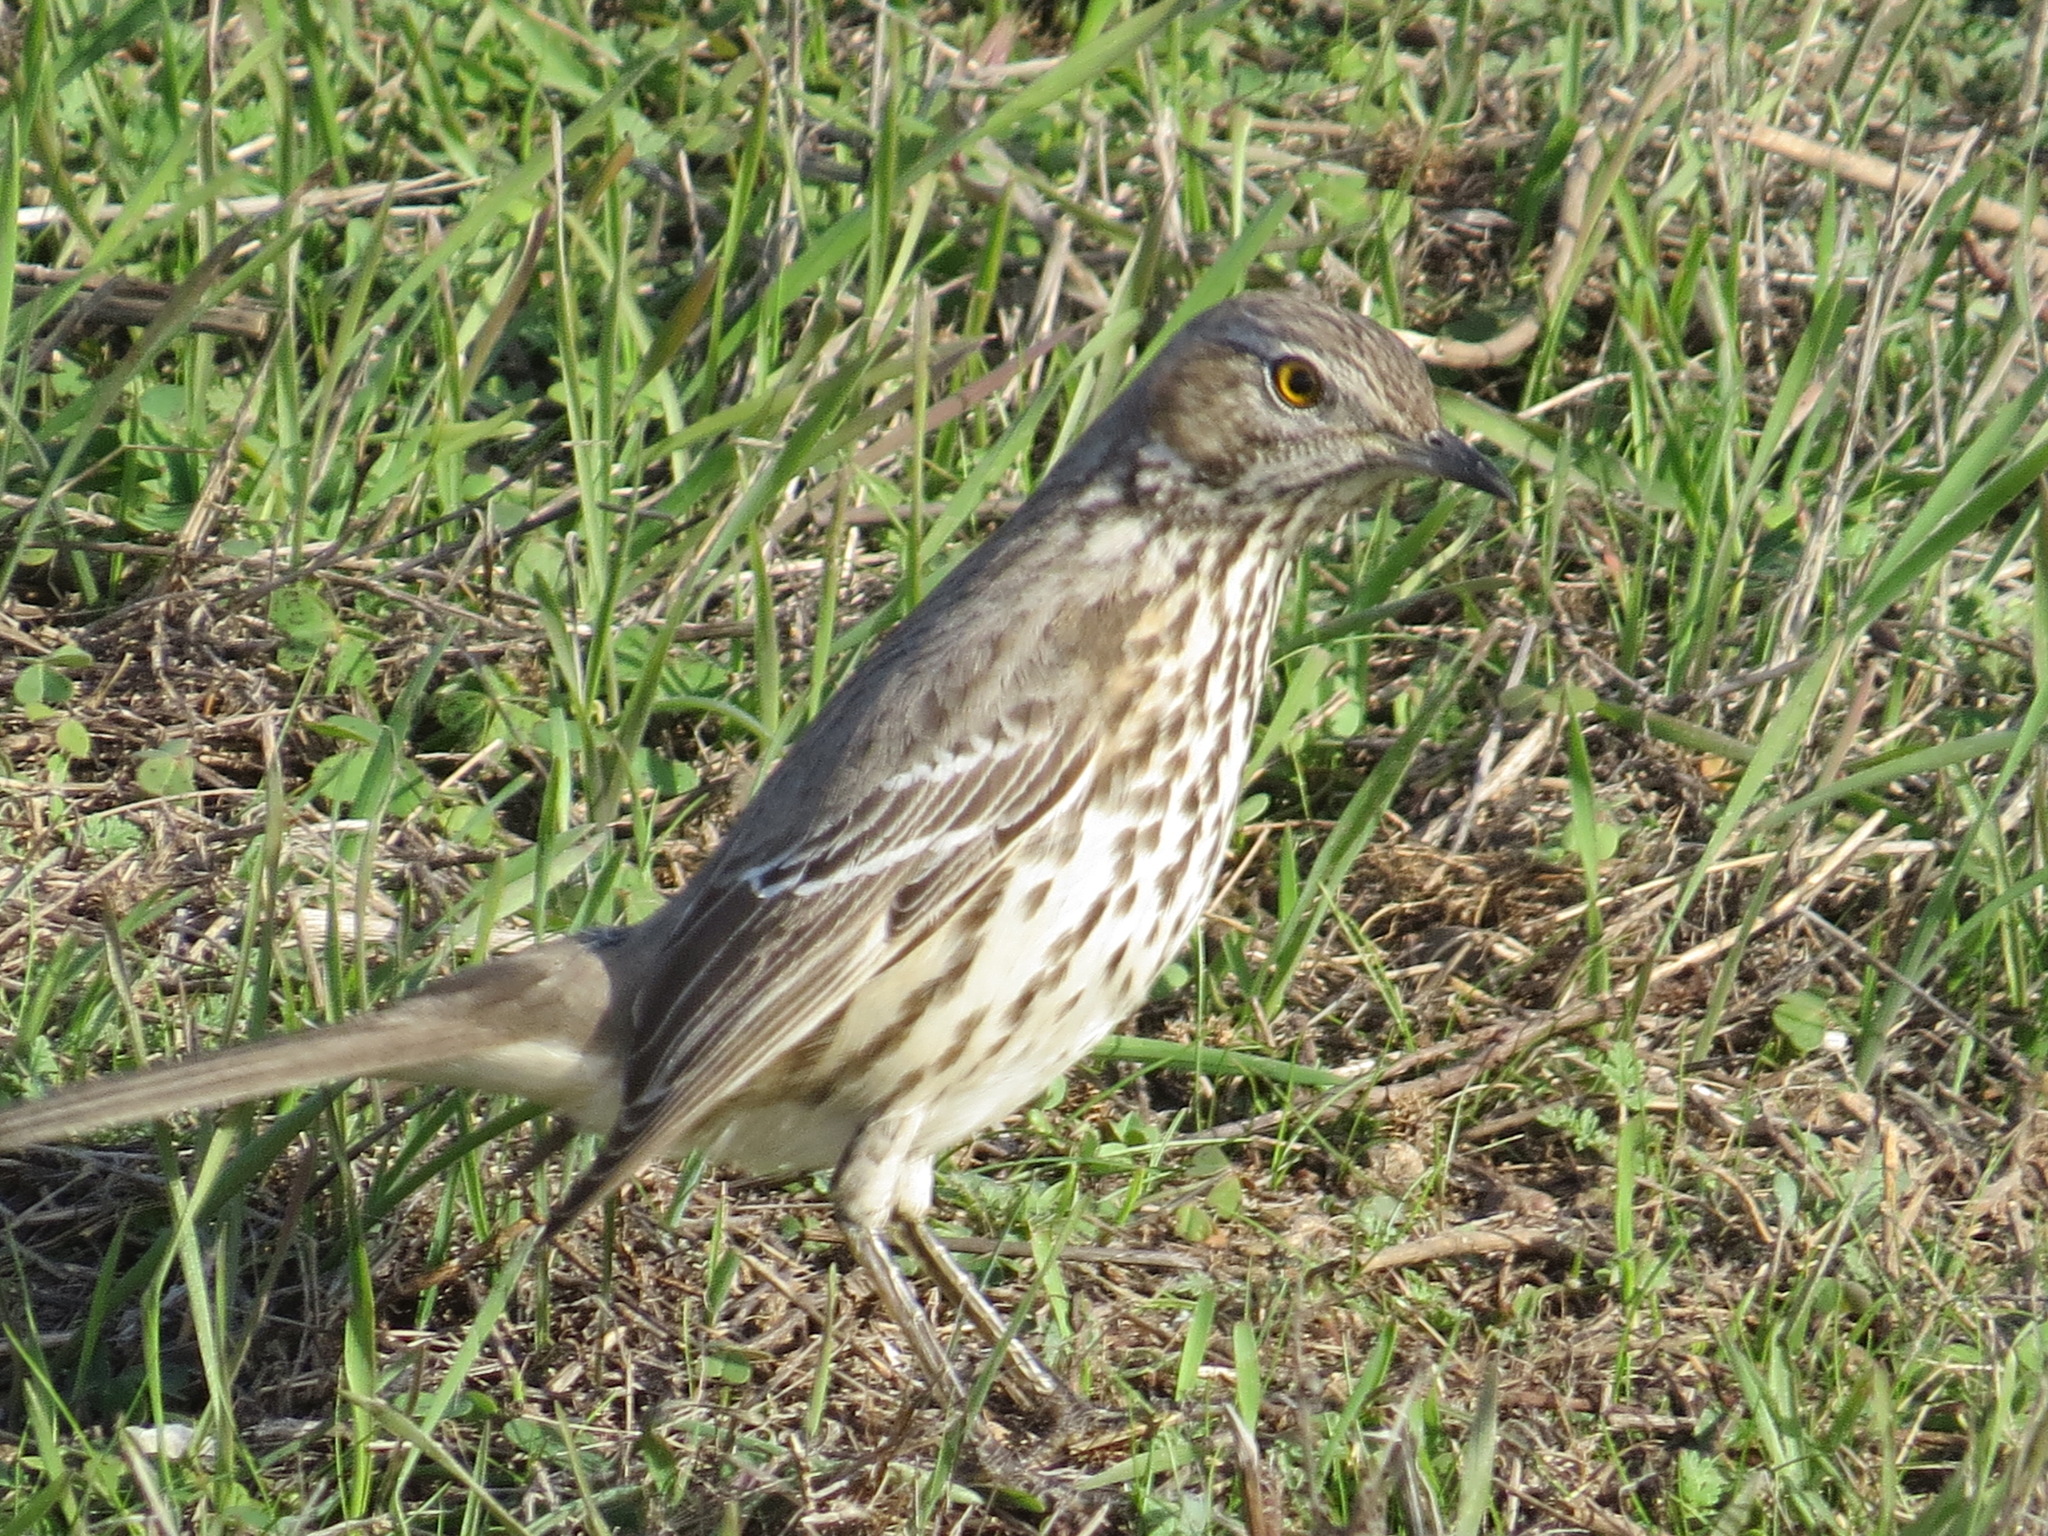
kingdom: Animalia
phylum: Chordata
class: Aves
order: Passeriformes
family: Mimidae
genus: Oreoscoptes
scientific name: Oreoscoptes montanus
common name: Sage thrasher
